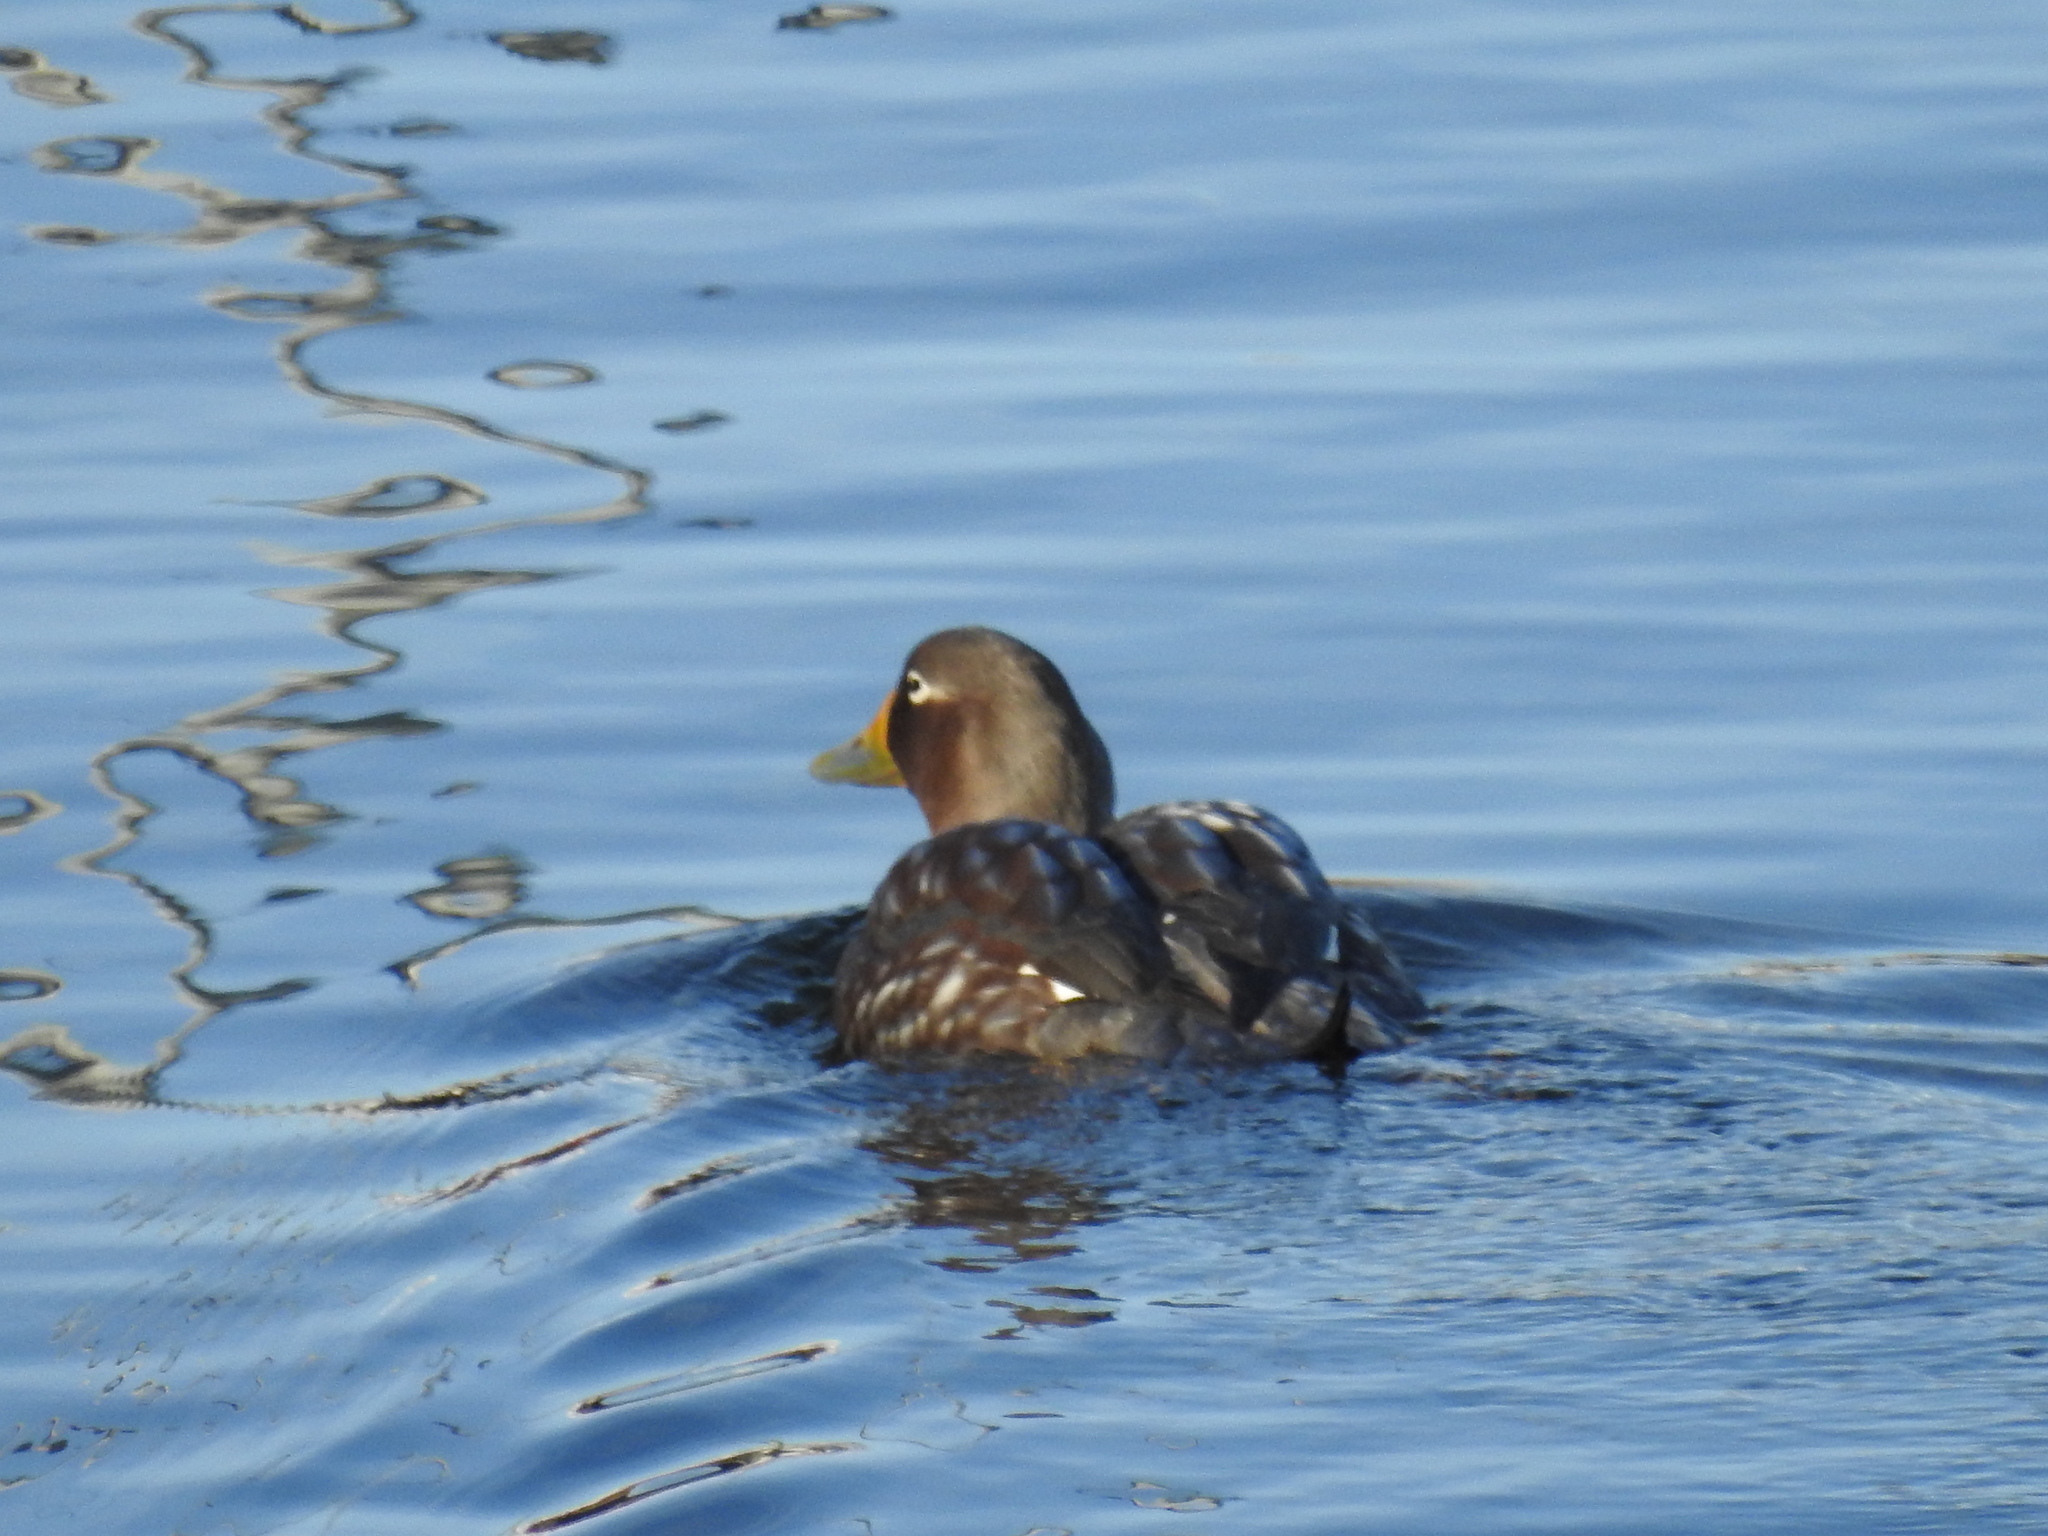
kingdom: Animalia
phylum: Chordata
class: Aves
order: Anseriformes
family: Anatidae
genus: Tachyeres
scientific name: Tachyeres patachonicus
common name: Flying steamer duck
